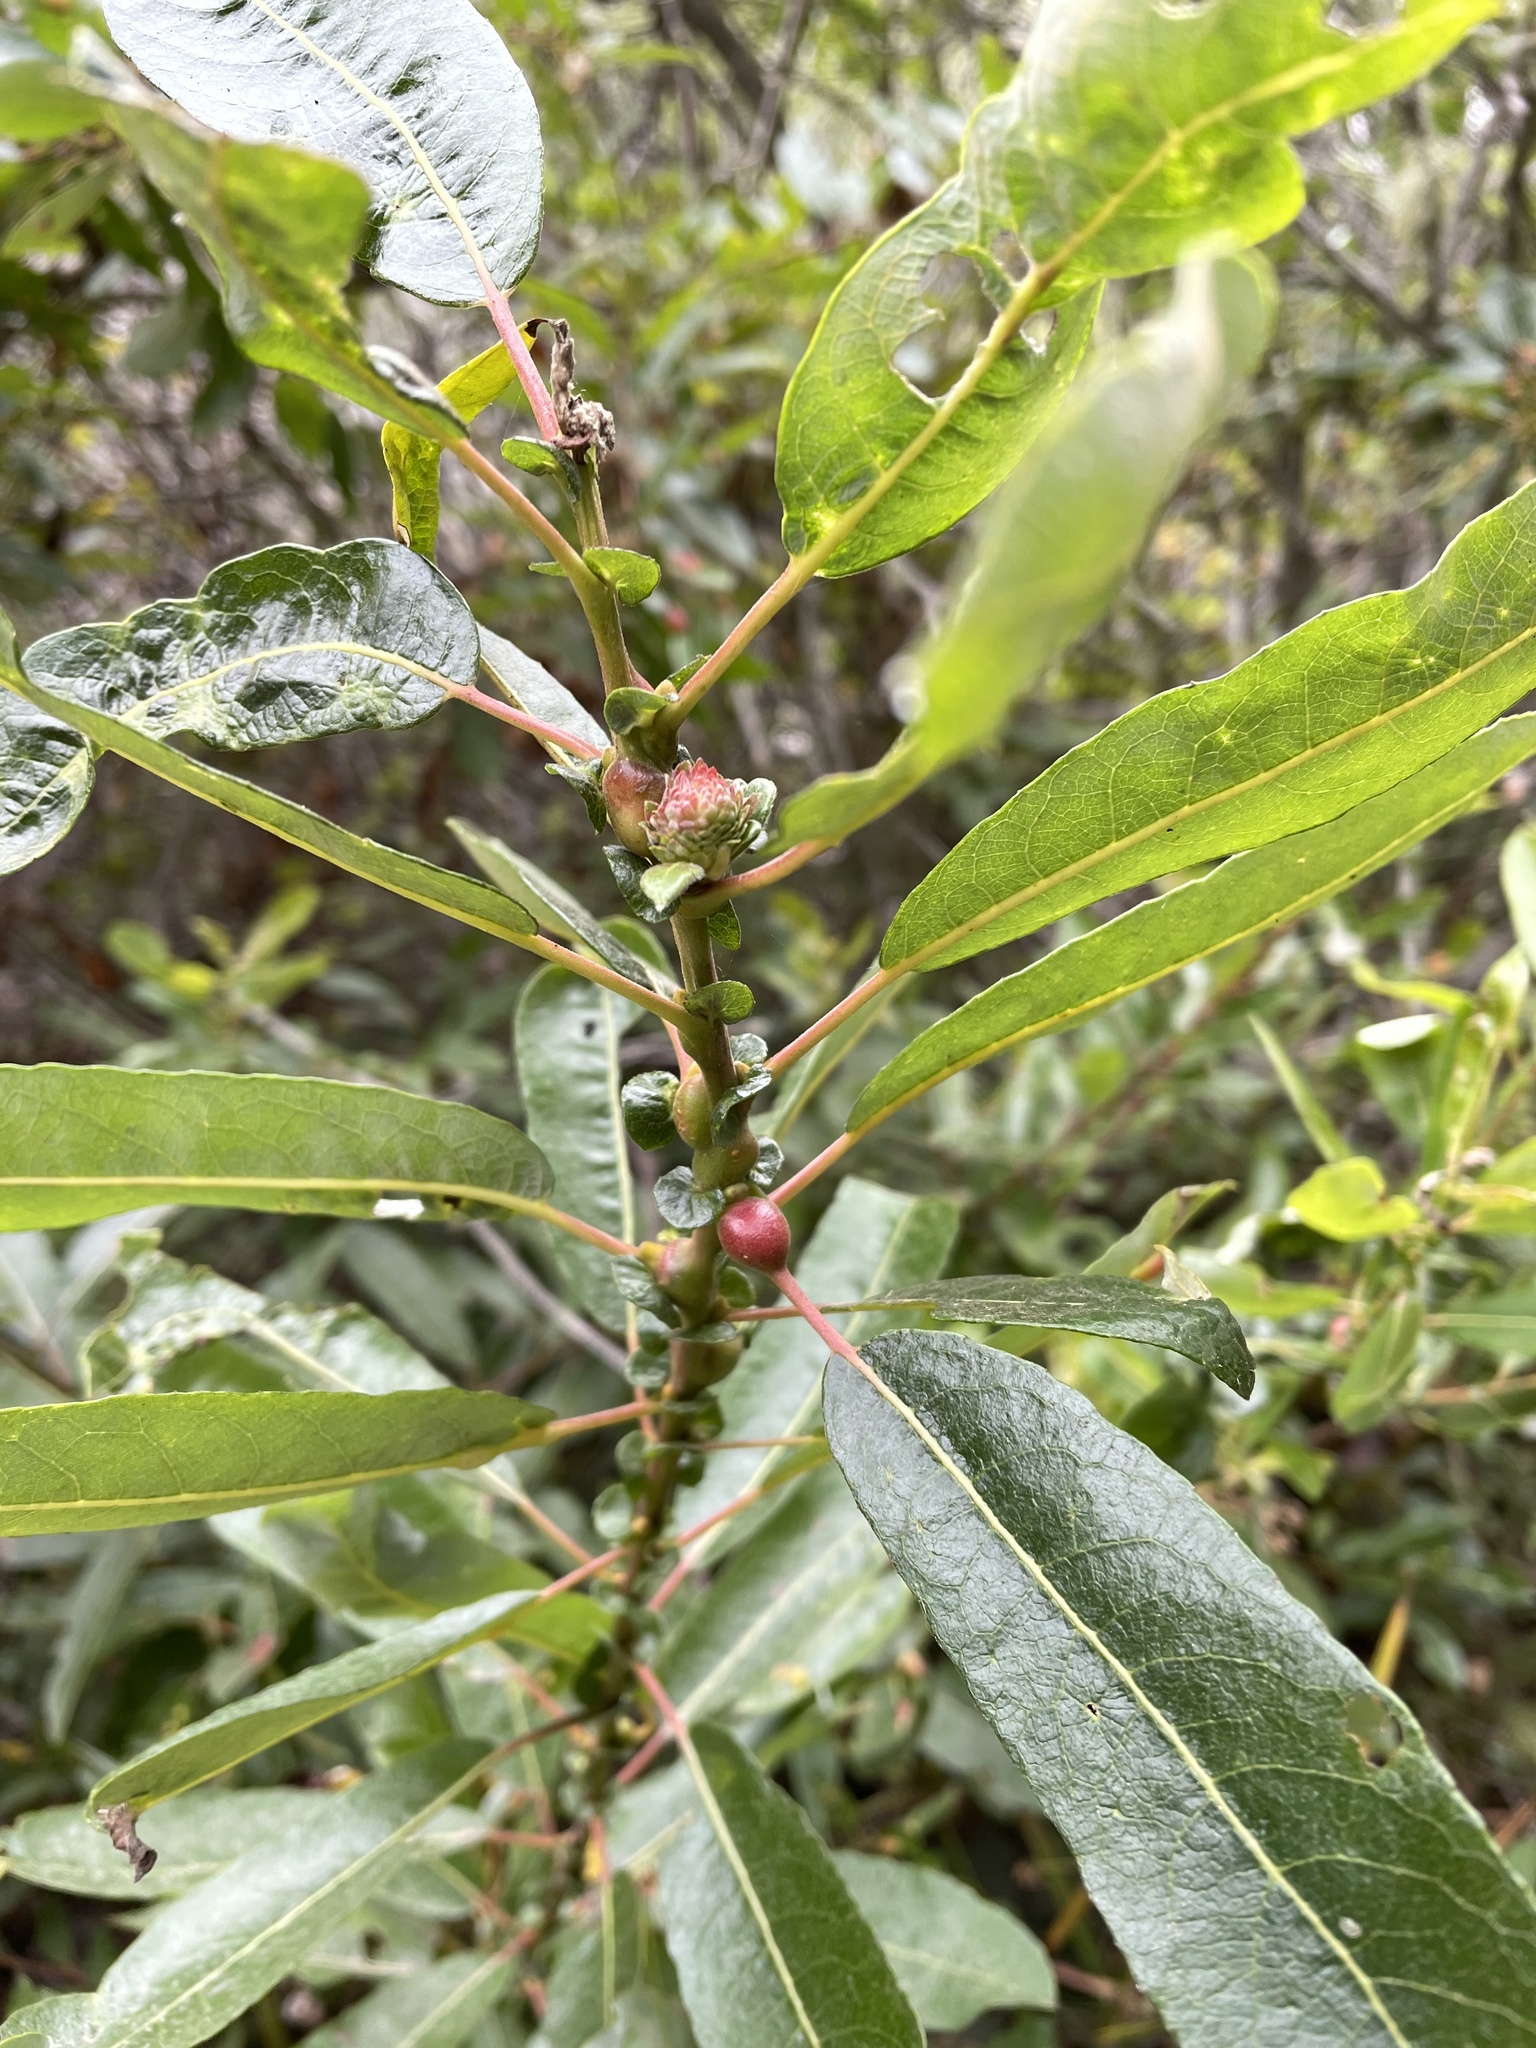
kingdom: Animalia
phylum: Arthropoda
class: Insecta
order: Hymenoptera
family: Tenthredinidae
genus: Euura
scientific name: Euura
